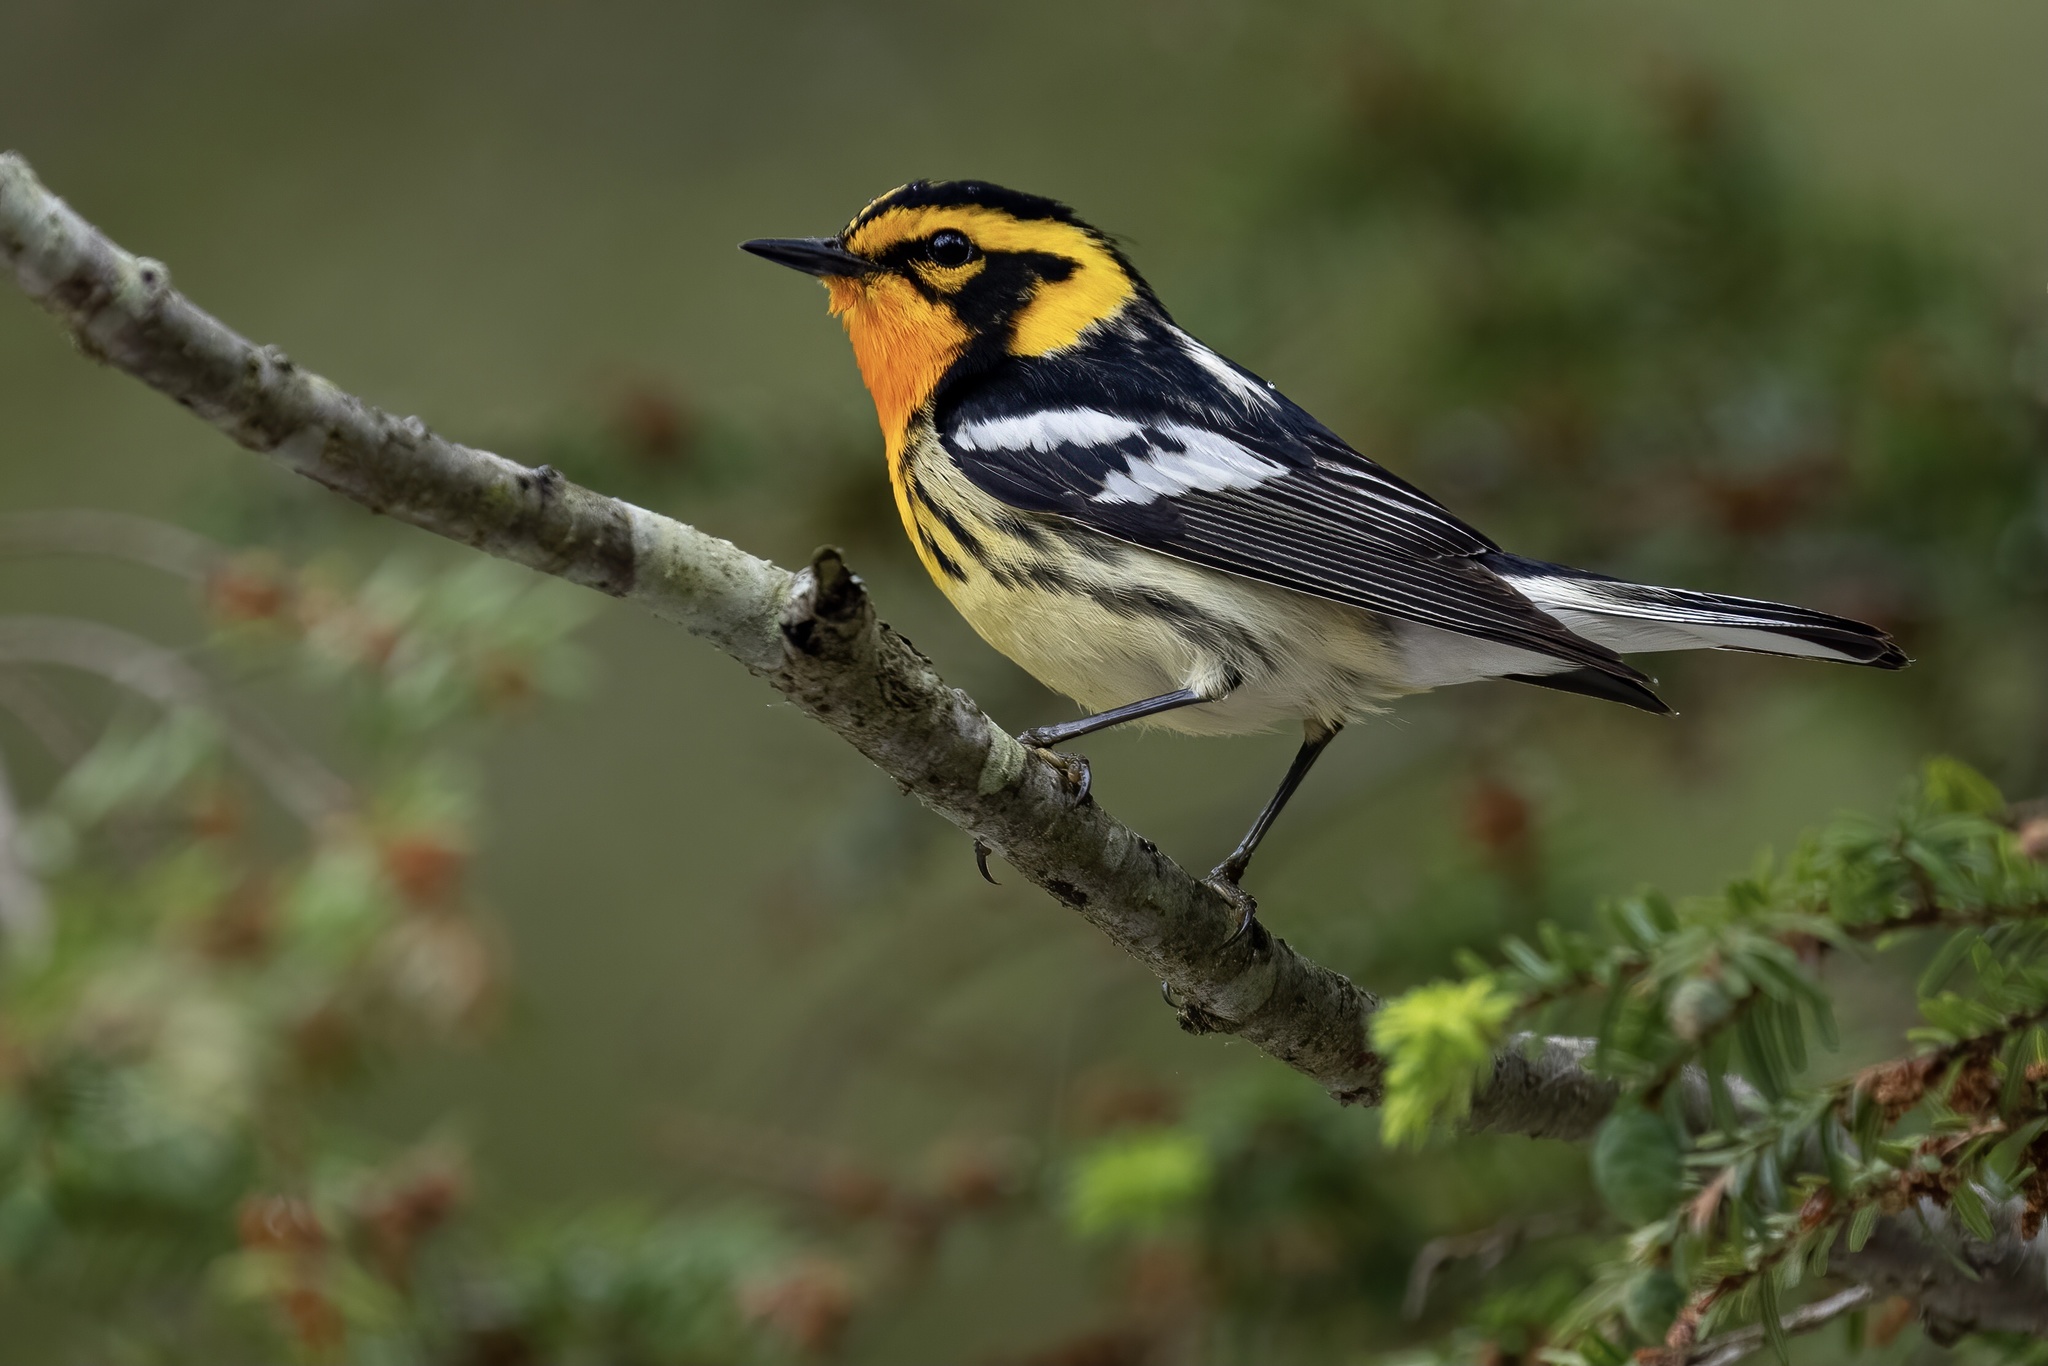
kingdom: Animalia
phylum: Chordata
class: Aves
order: Passeriformes
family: Parulidae
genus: Setophaga
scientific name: Setophaga fusca
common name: Blackburnian warbler
